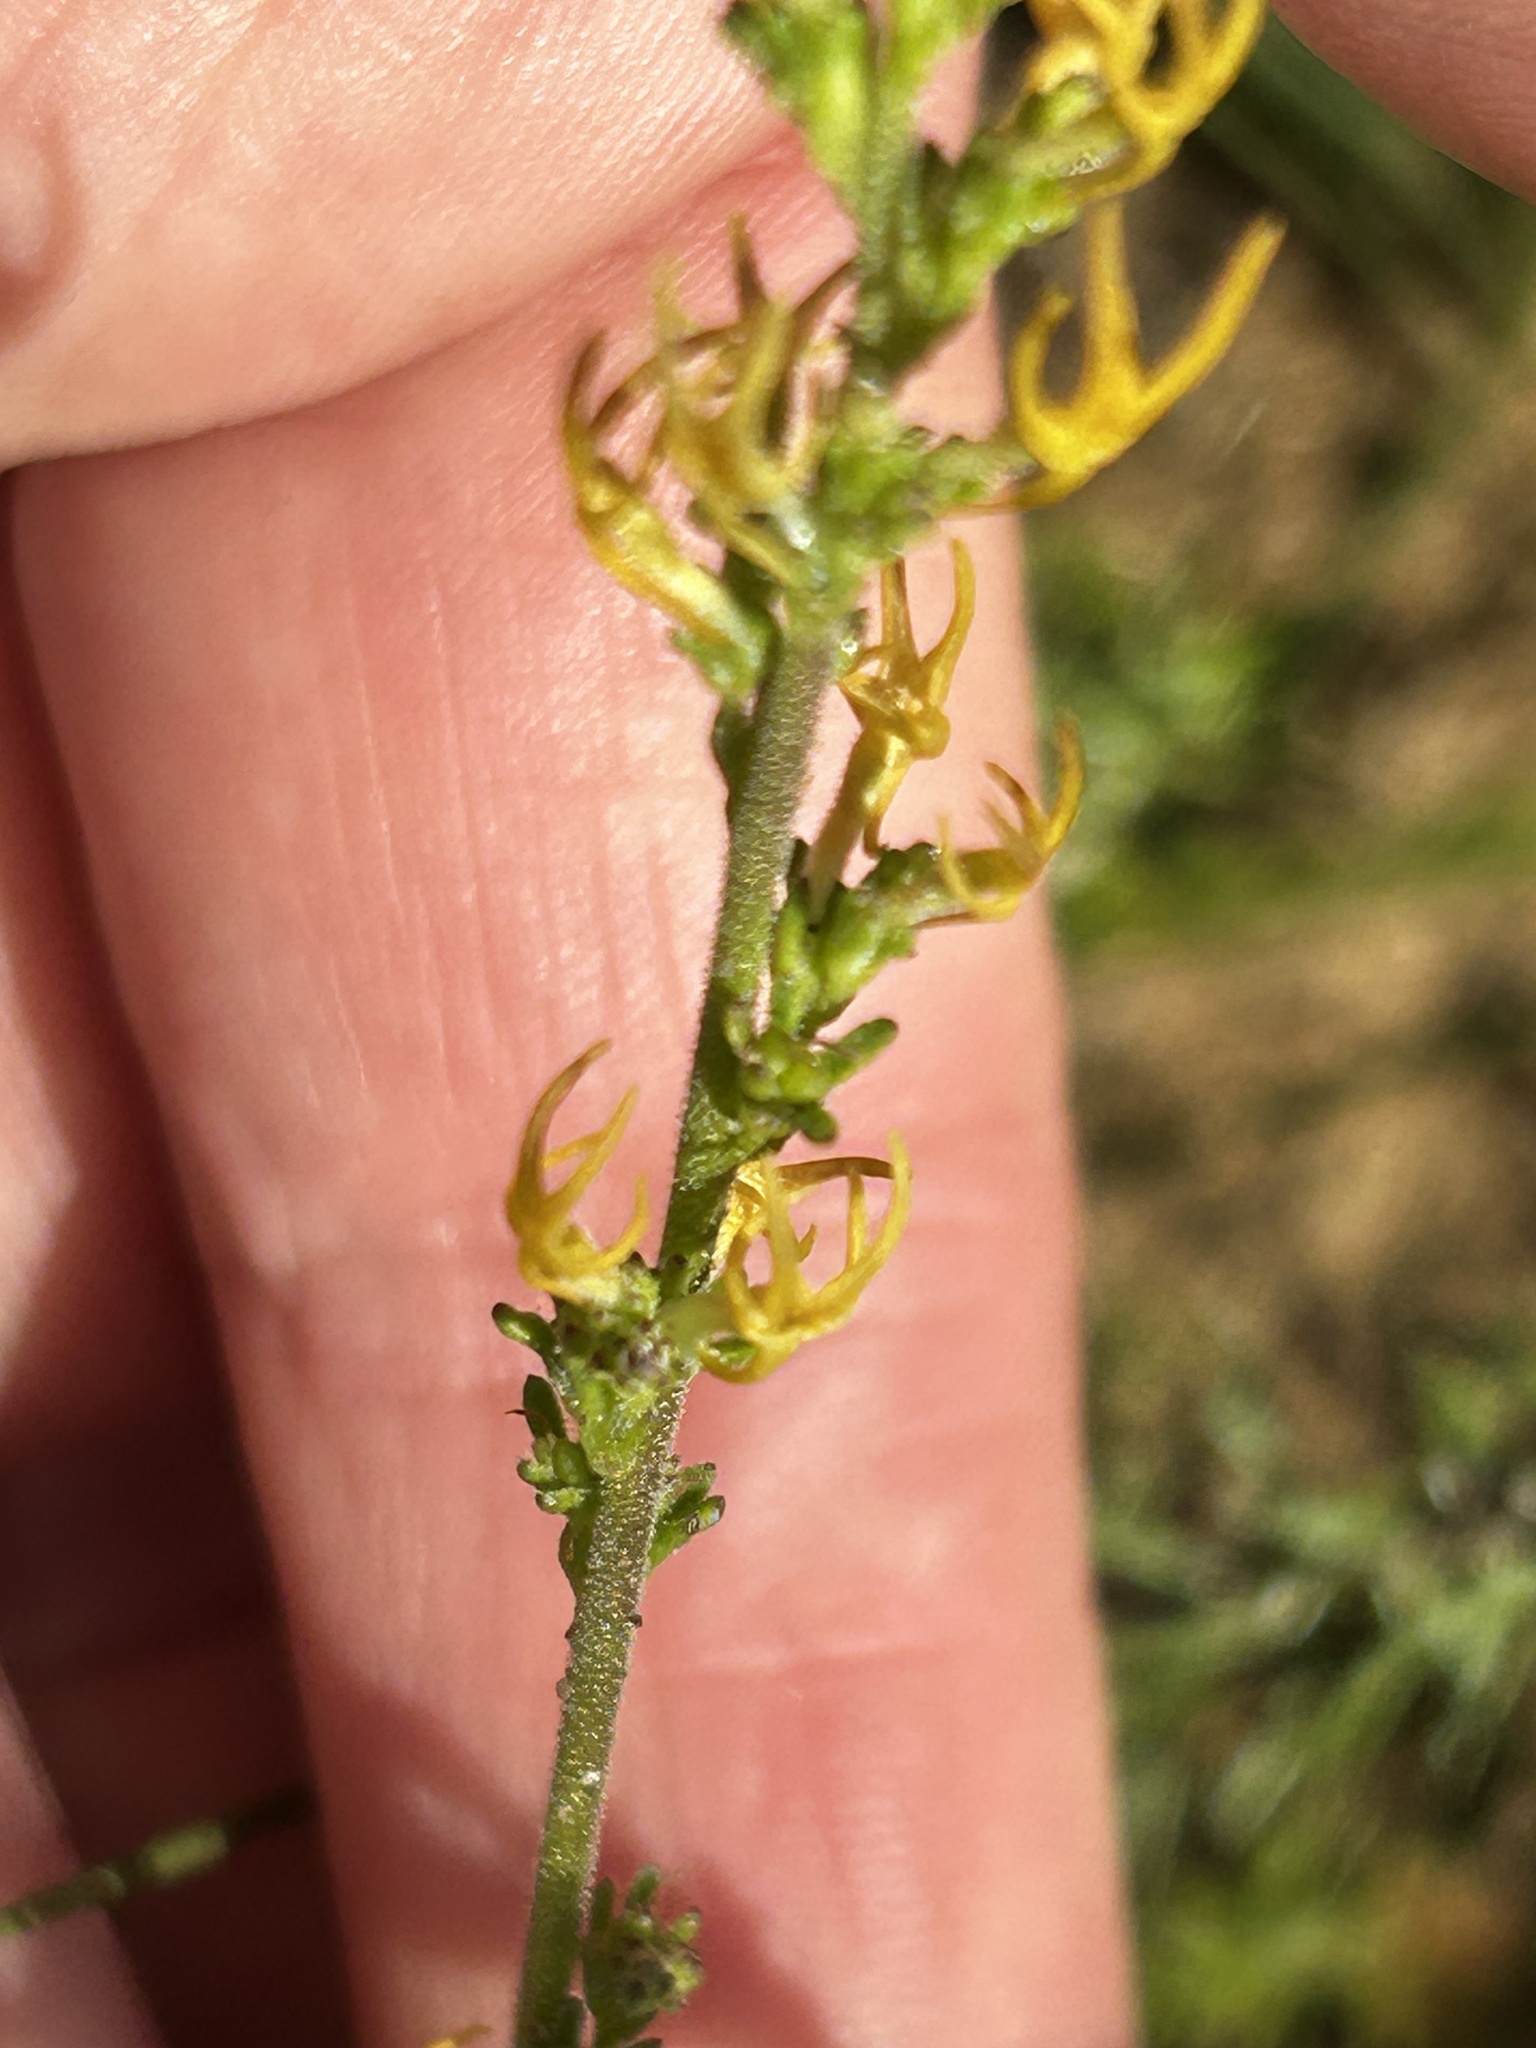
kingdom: Plantae
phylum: Tracheophyta
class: Magnoliopsida
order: Lamiales
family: Scrophulariaceae
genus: Manulea
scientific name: Manulea cheiranthus
